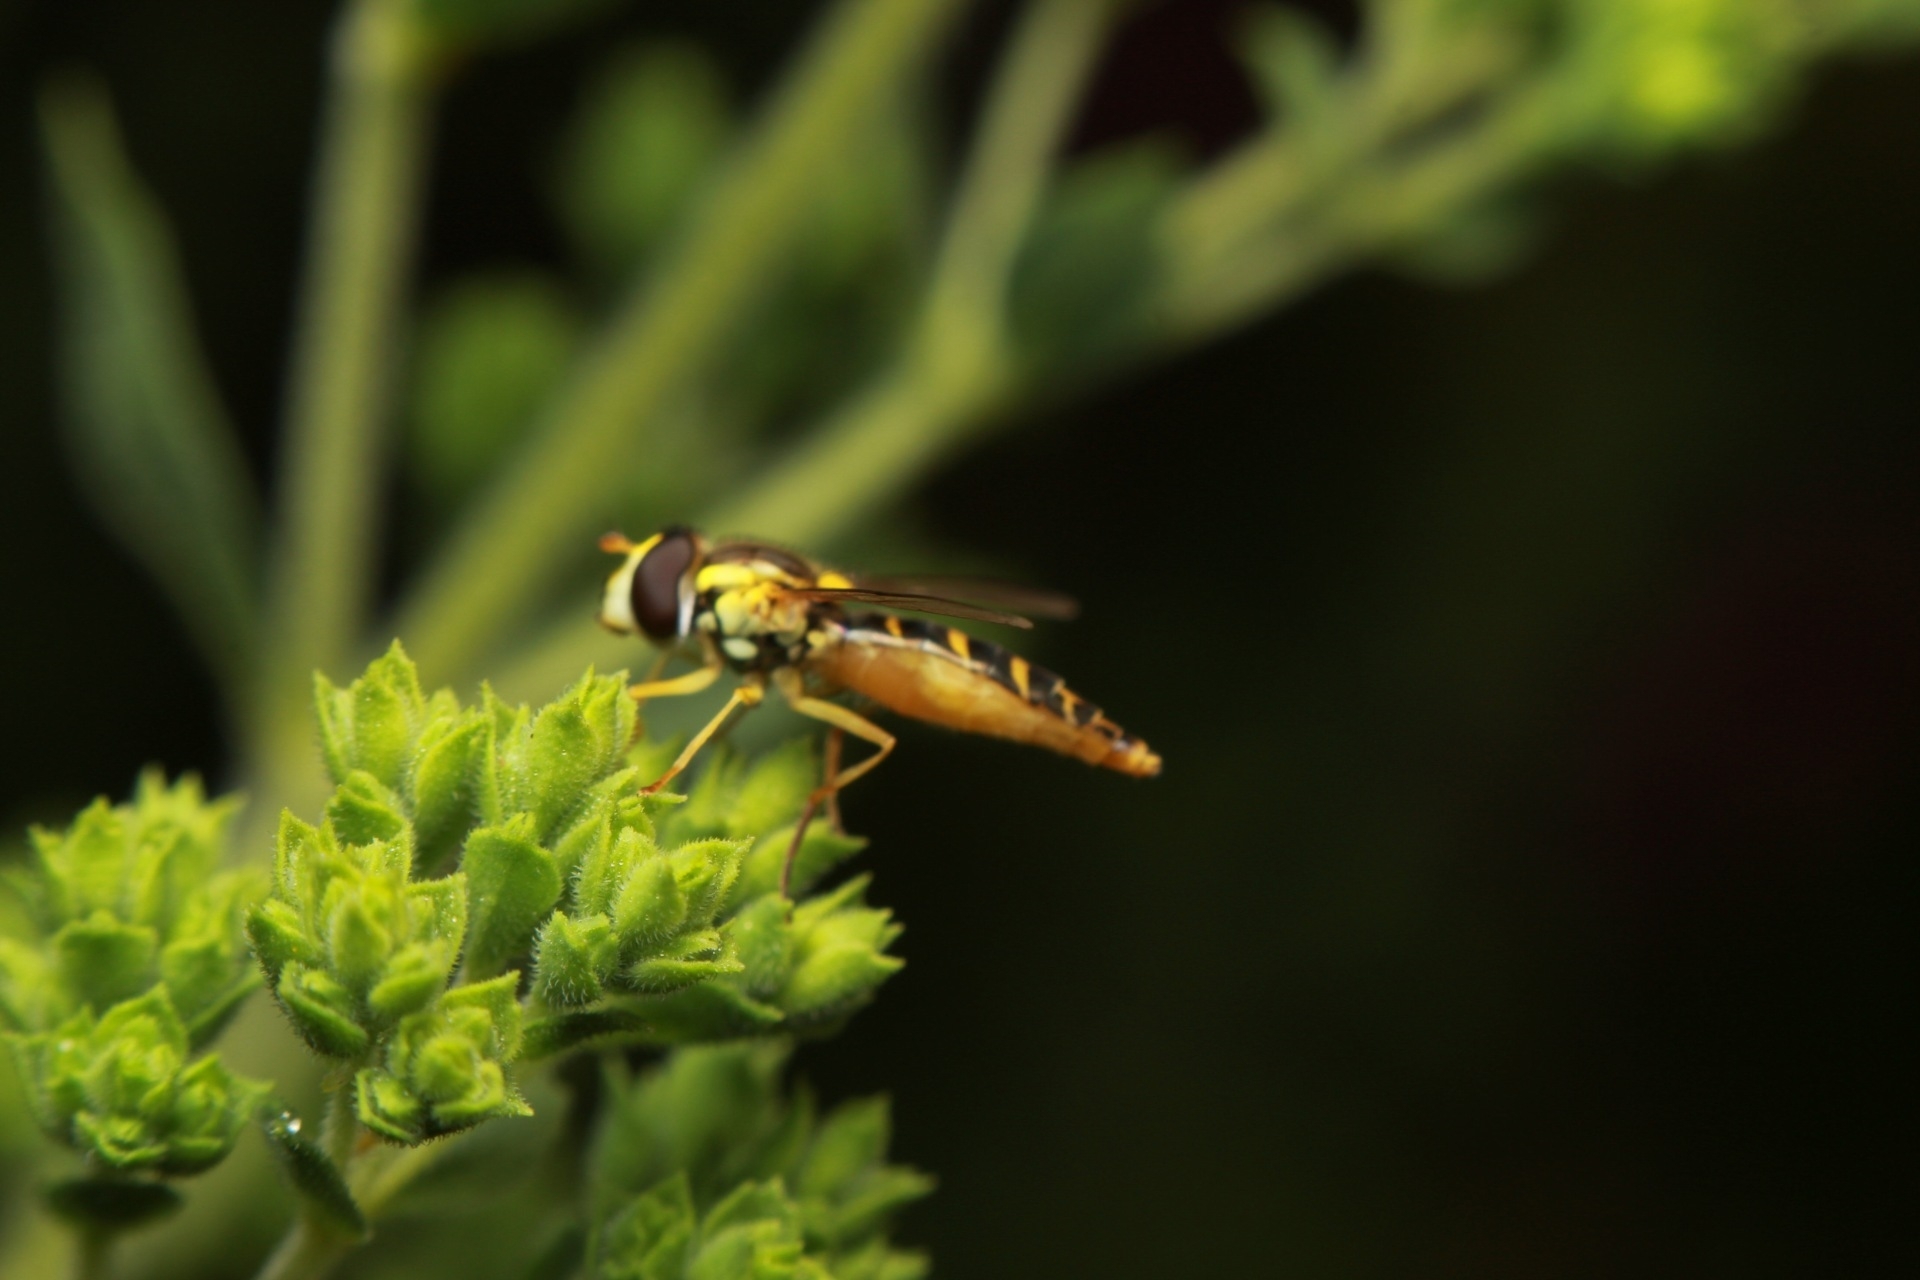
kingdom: Animalia
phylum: Arthropoda
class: Insecta
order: Diptera
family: Syrphidae
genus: Sphaerophoria
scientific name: Sphaerophoria
